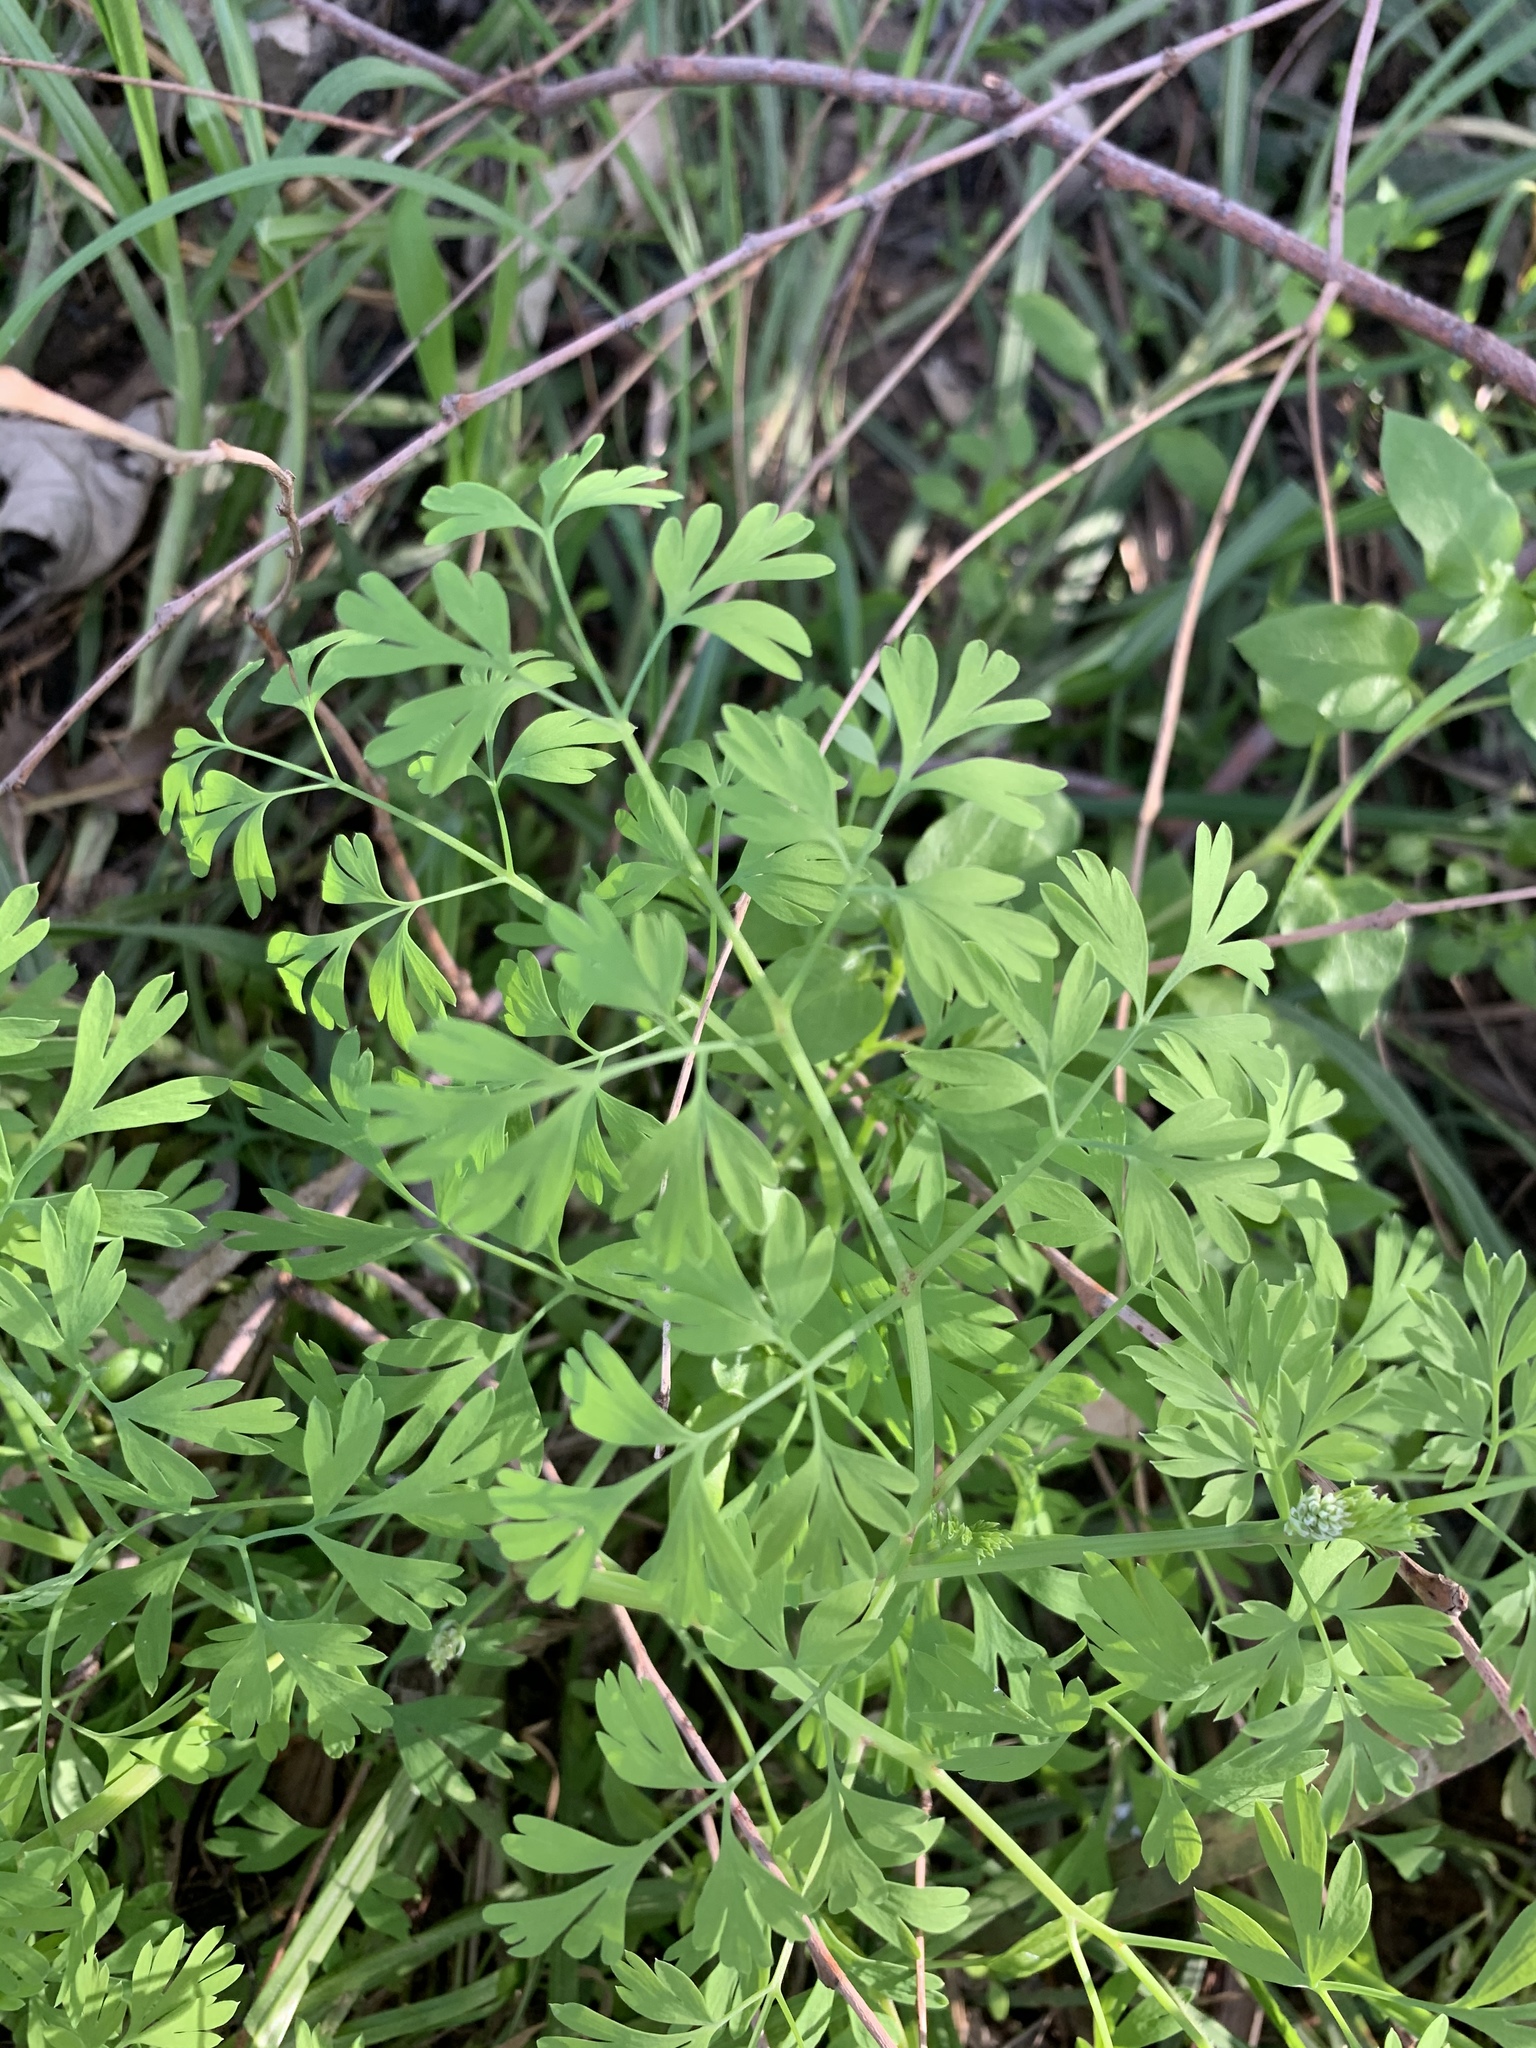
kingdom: Plantae
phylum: Tracheophyta
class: Magnoliopsida
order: Ranunculales
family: Papaveraceae
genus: Fumaria
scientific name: Fumaria muralis
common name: Common ramping-fumitory
